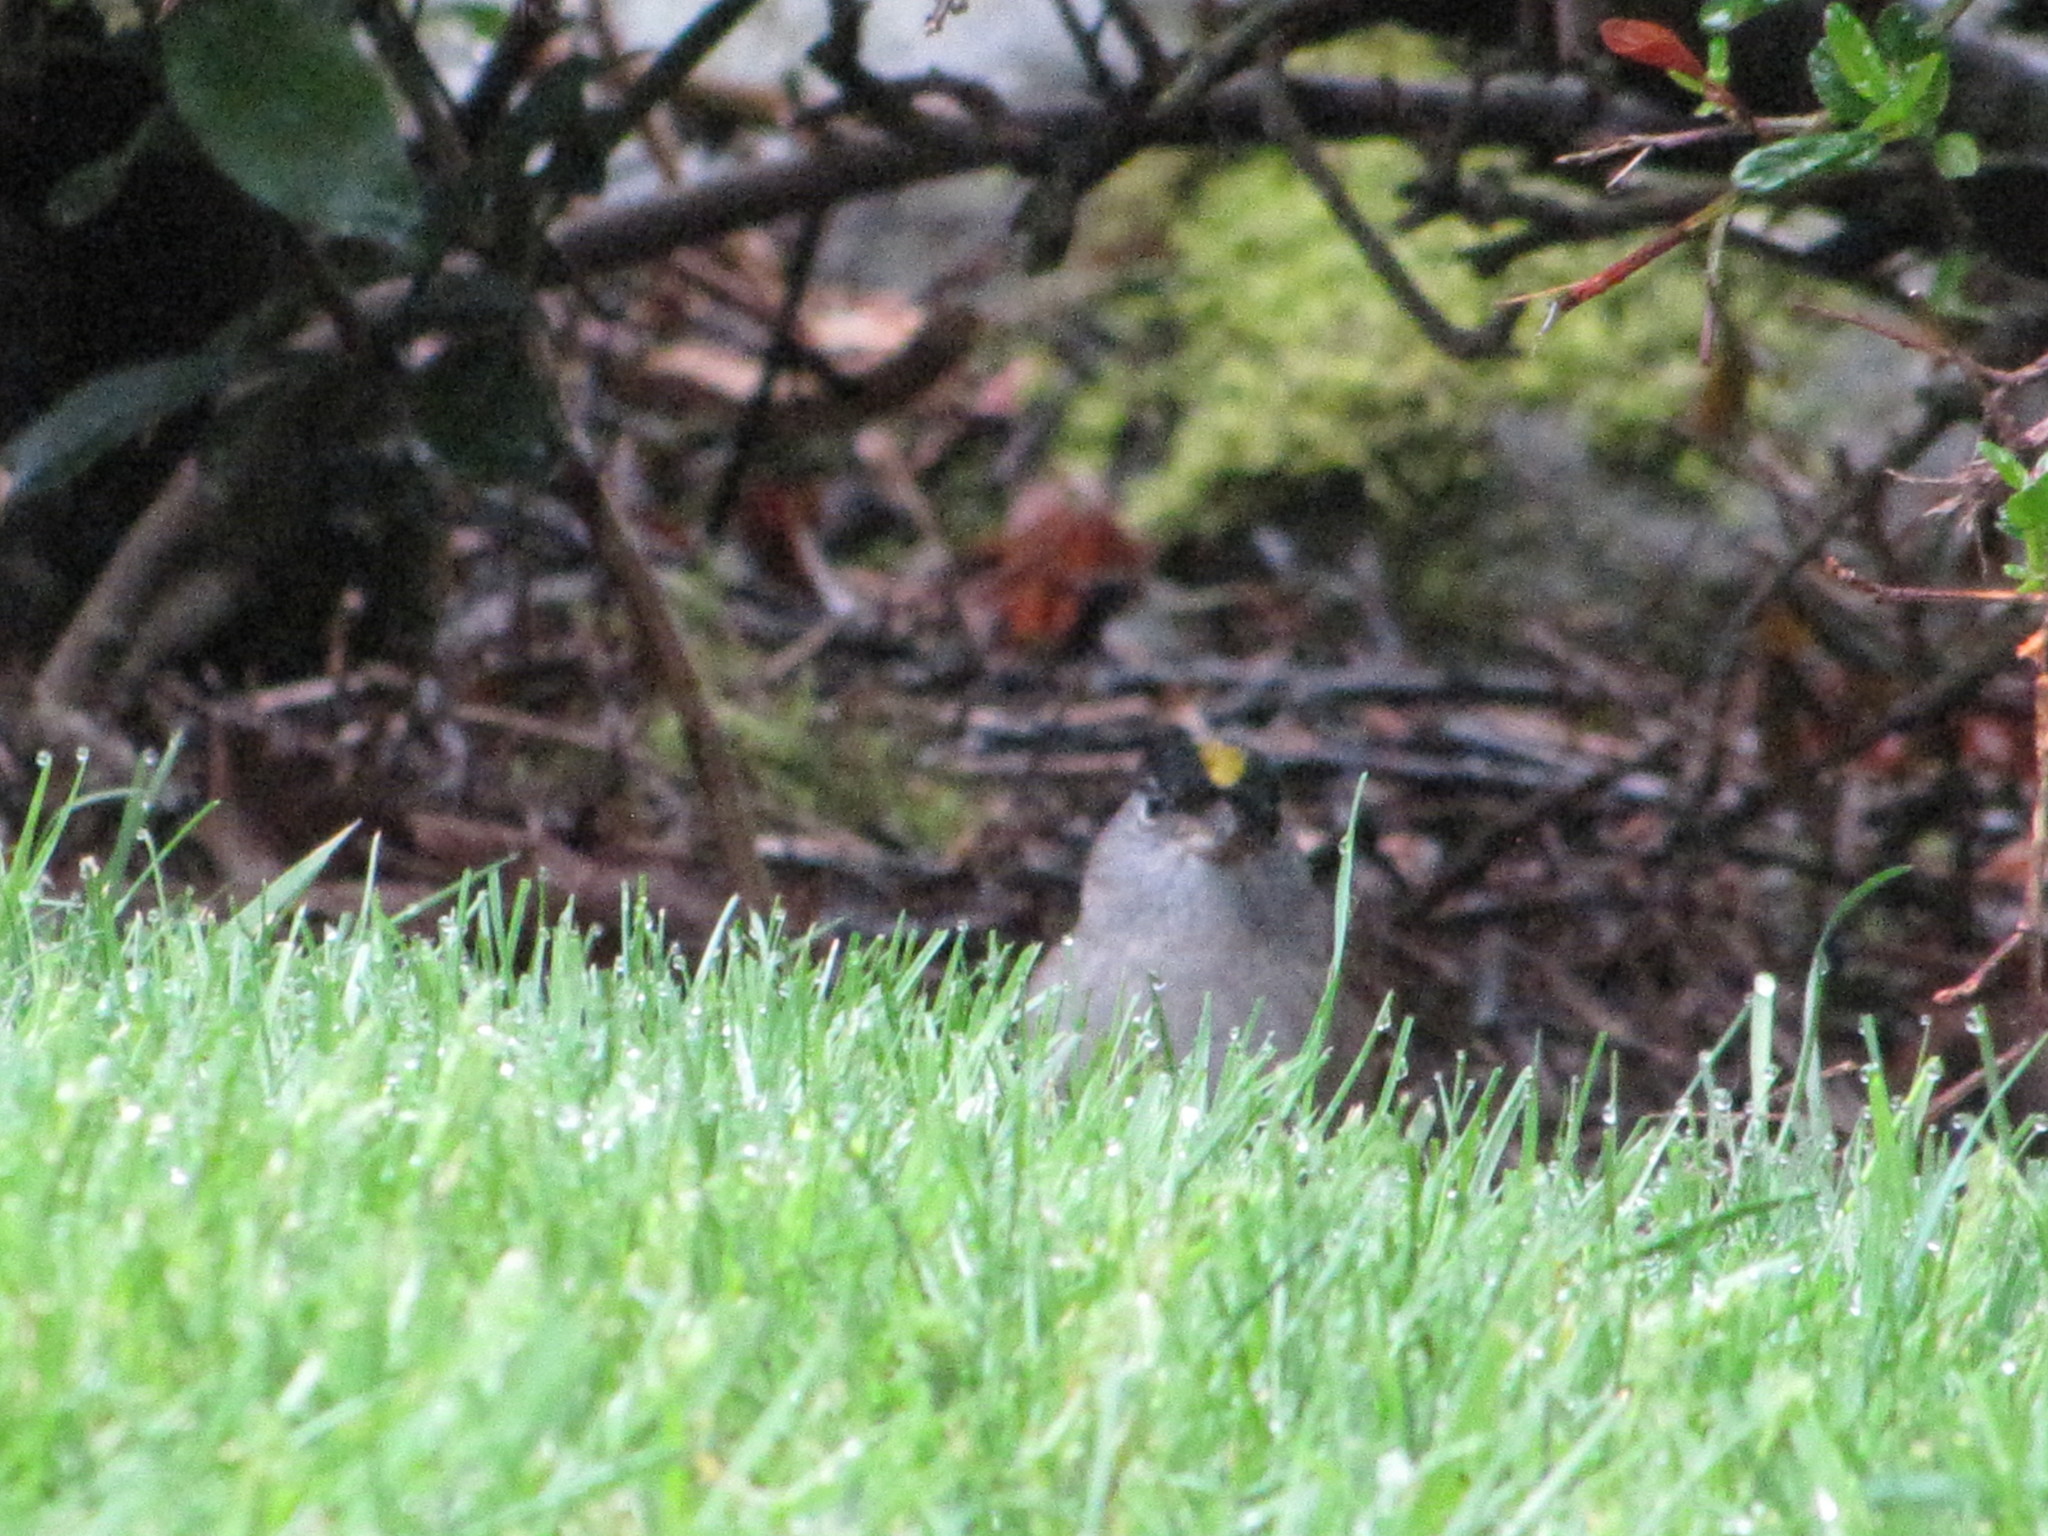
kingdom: Animalia
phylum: Chordata
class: Aves
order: Passeriformes
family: Passerellidae
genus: Zonotrichia
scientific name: Zonotrichia atricapilla
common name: Golden-crowned sparrow
